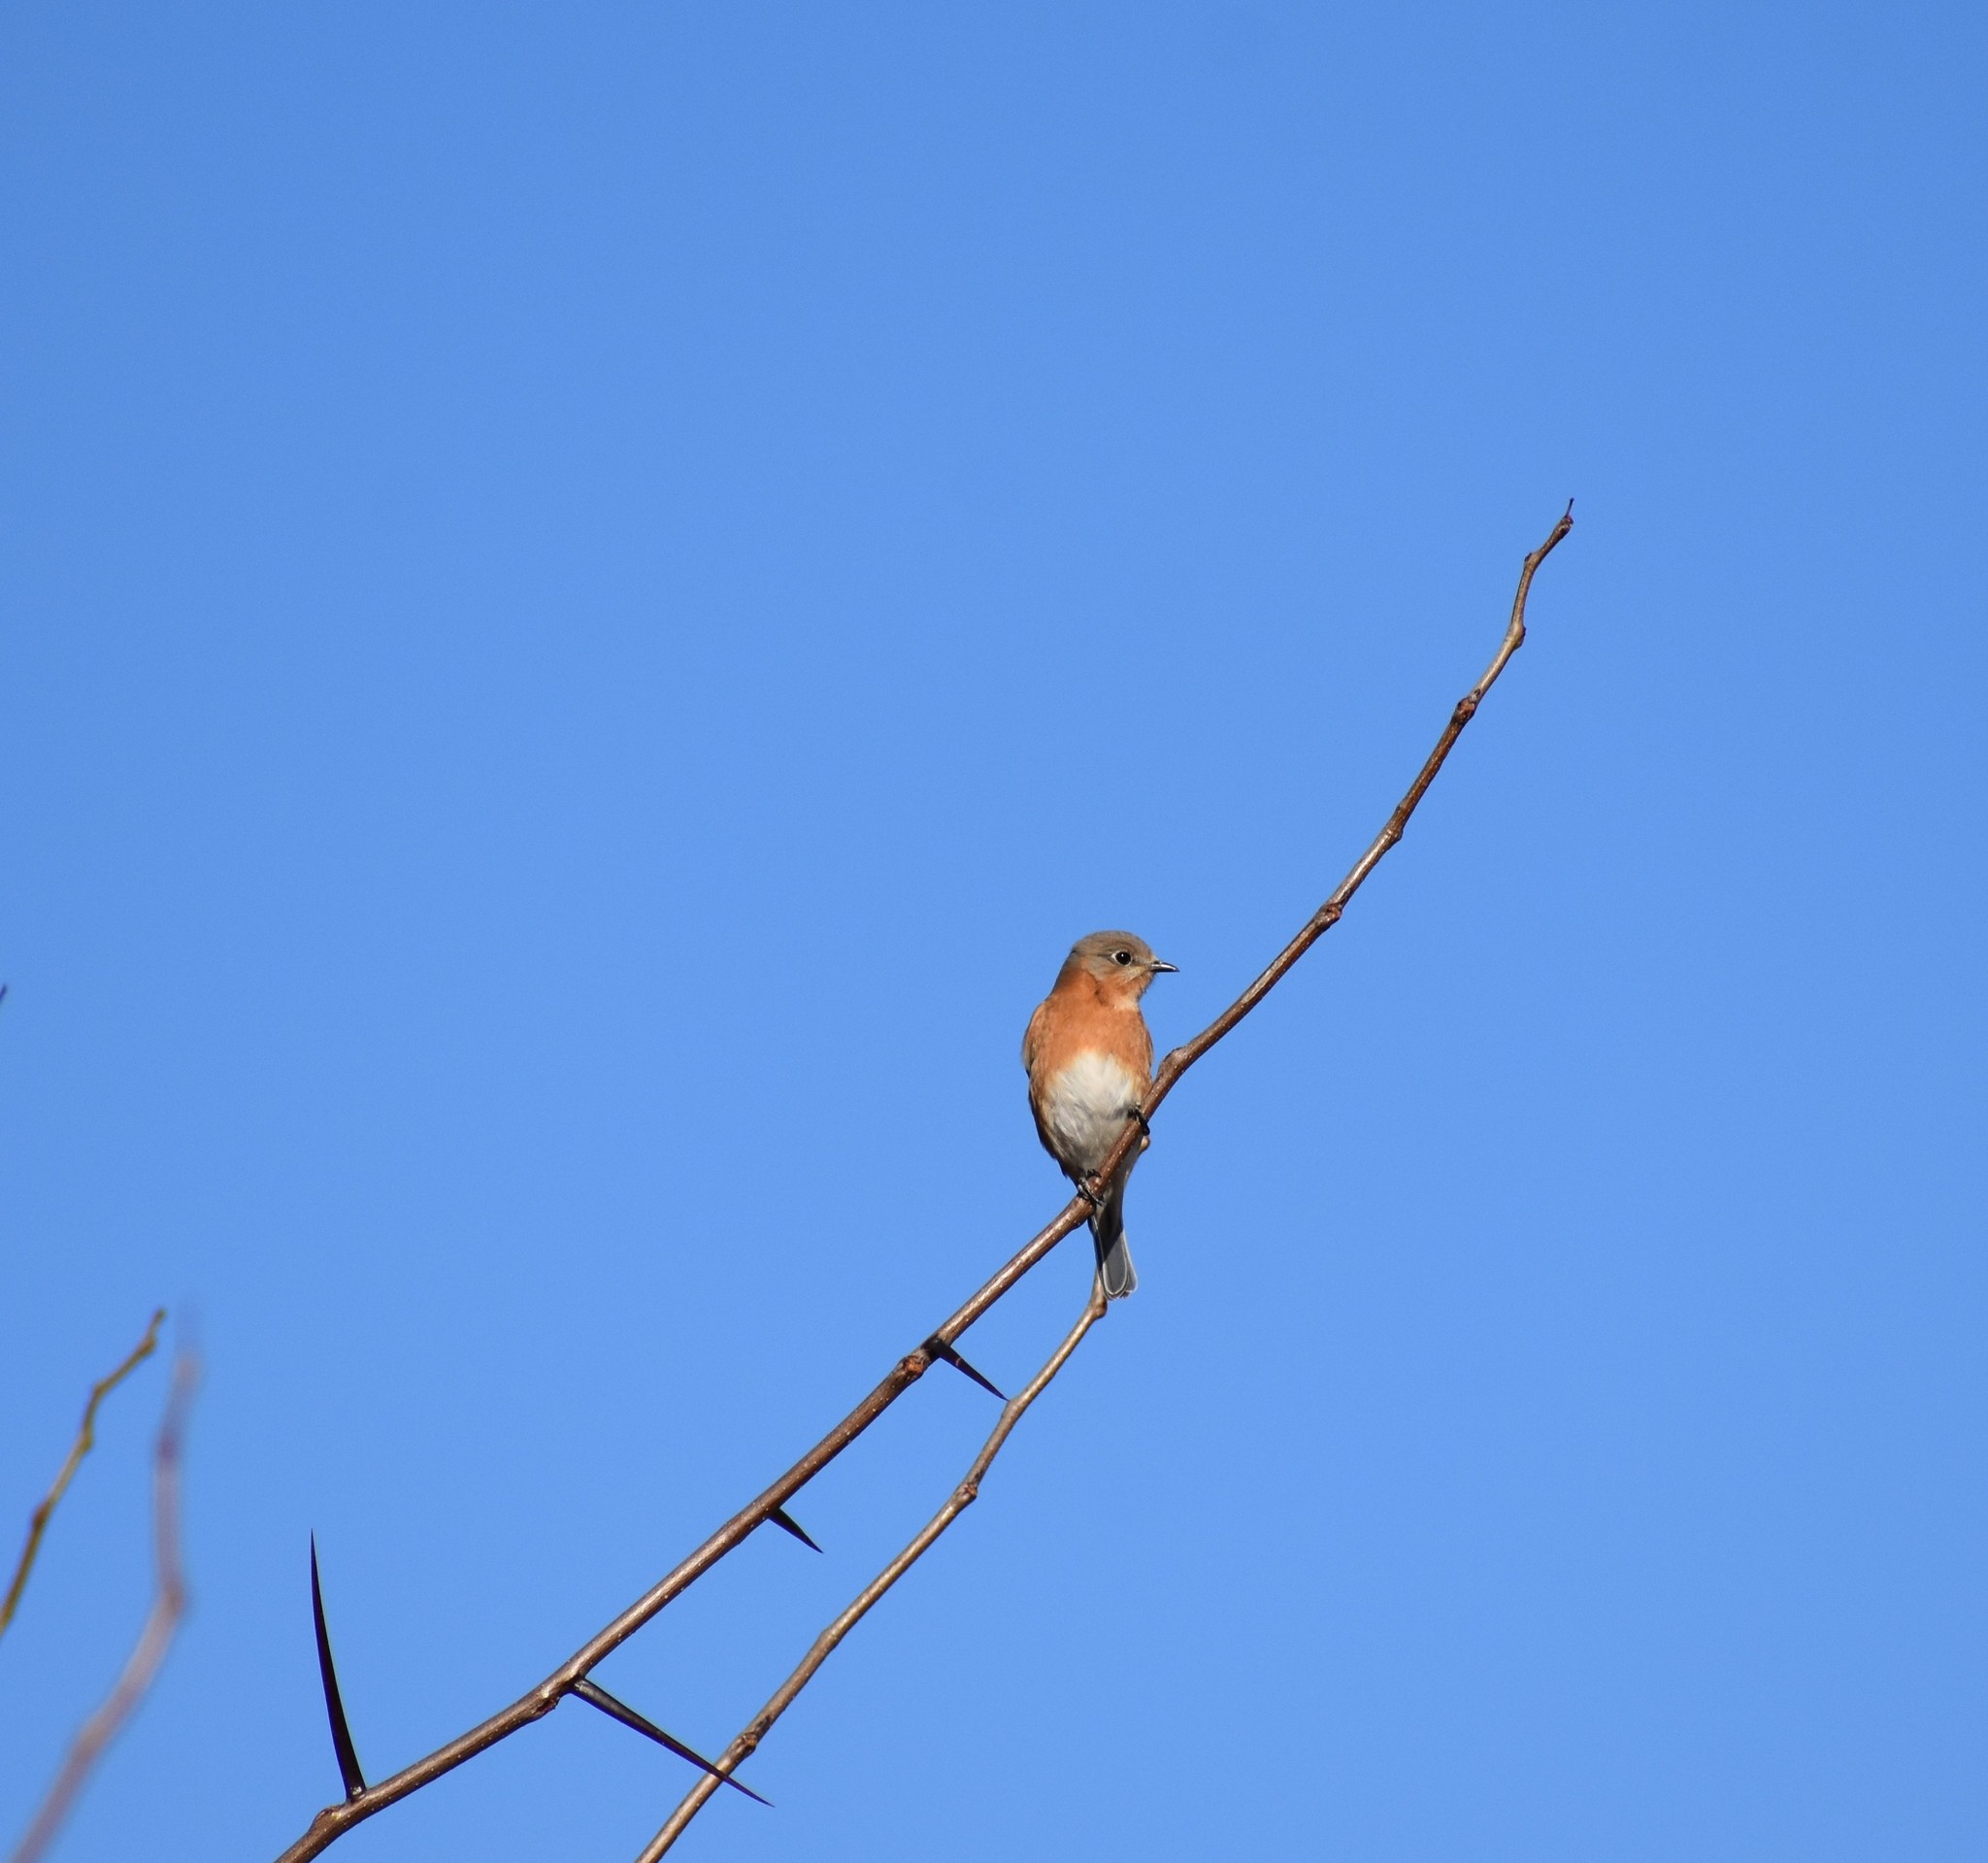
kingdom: Animalia
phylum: Chordata
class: Aves
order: Passeriformes
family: Turdidae
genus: Sialia
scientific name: Sialia sialis
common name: Eastern bluebird
